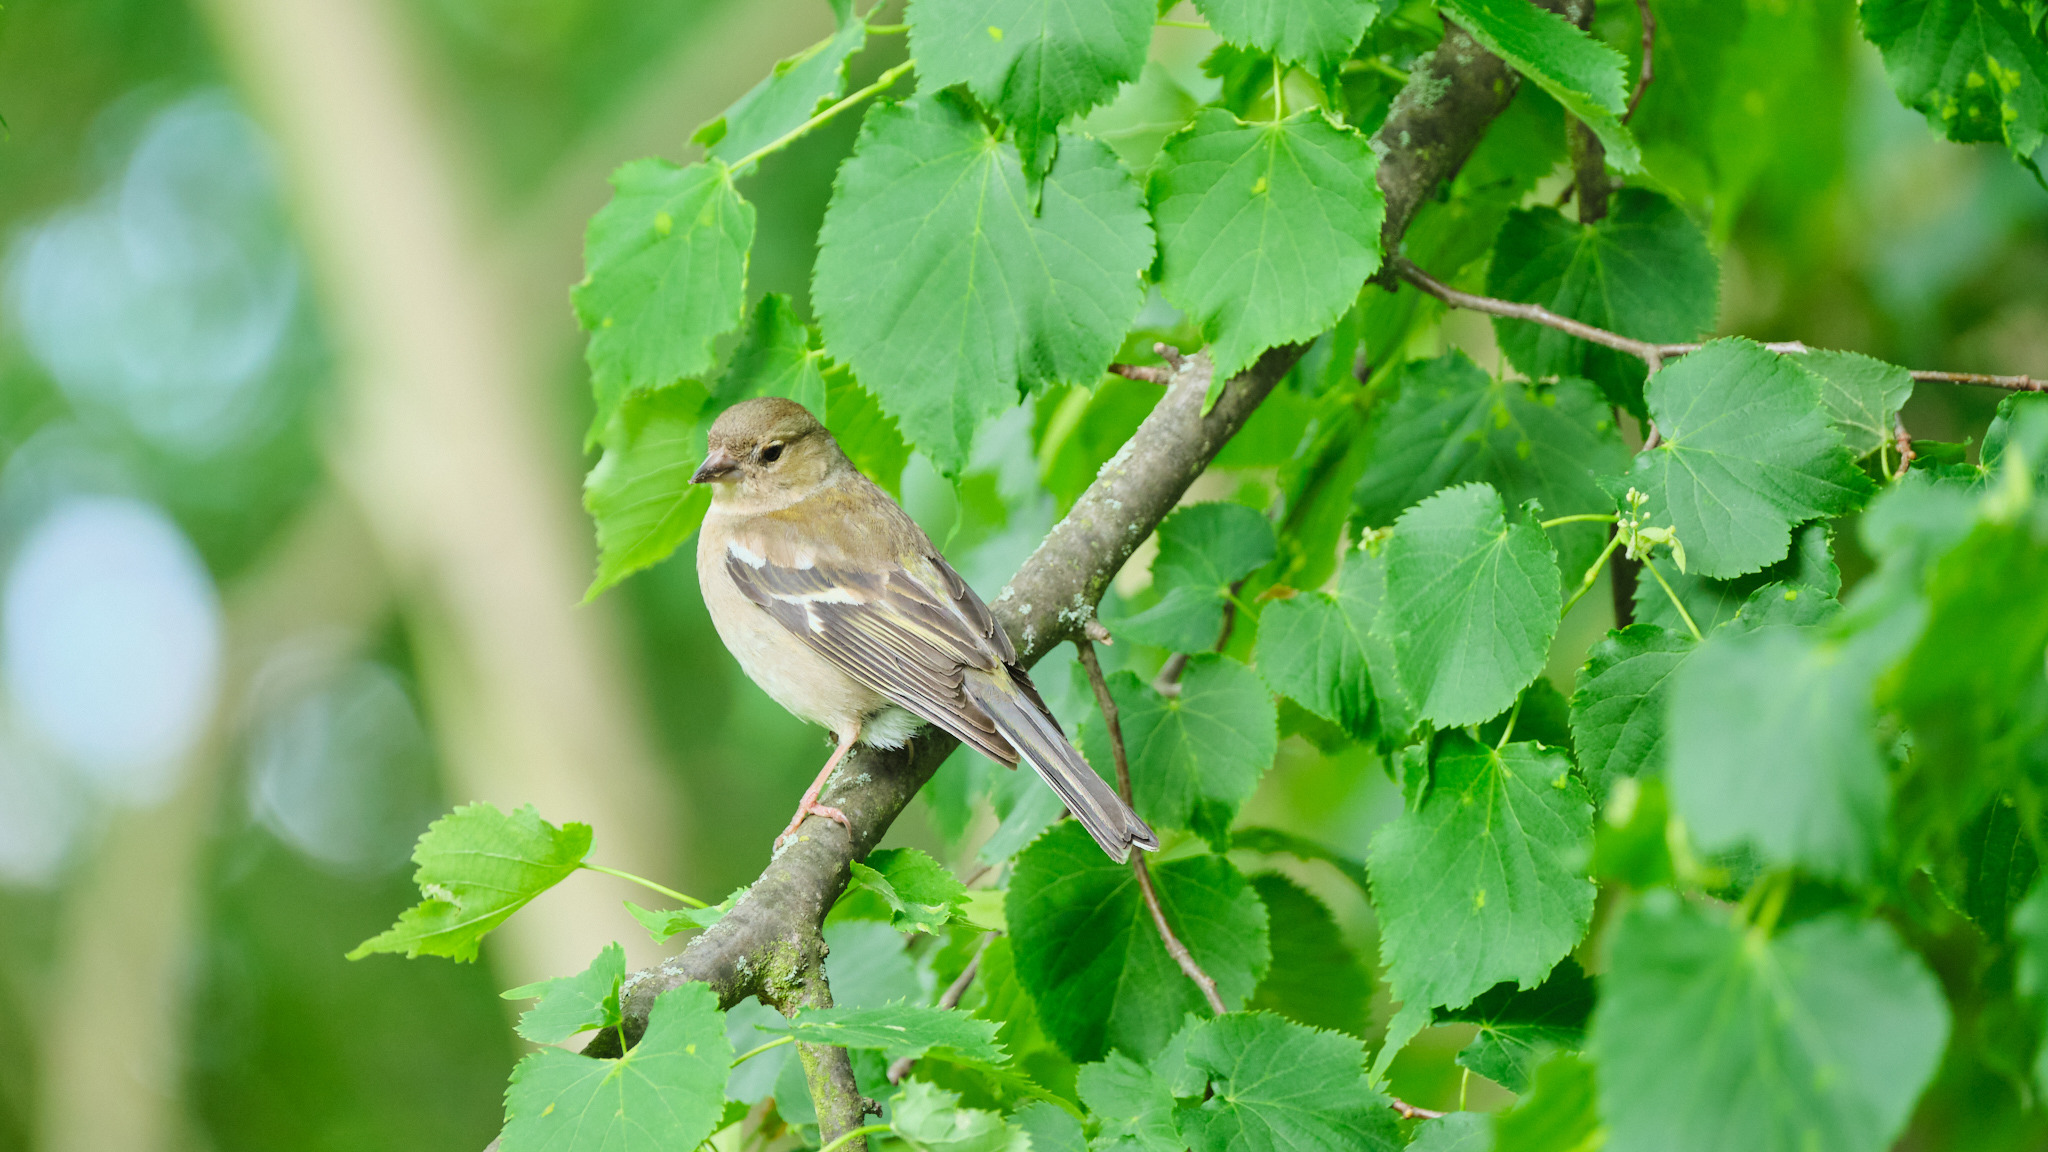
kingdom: Animalia
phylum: Chordata
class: Aves
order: Passeriformes
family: Fringillidae
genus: Fringilla
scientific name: Fringilla coelebs
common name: Common chaffinch
